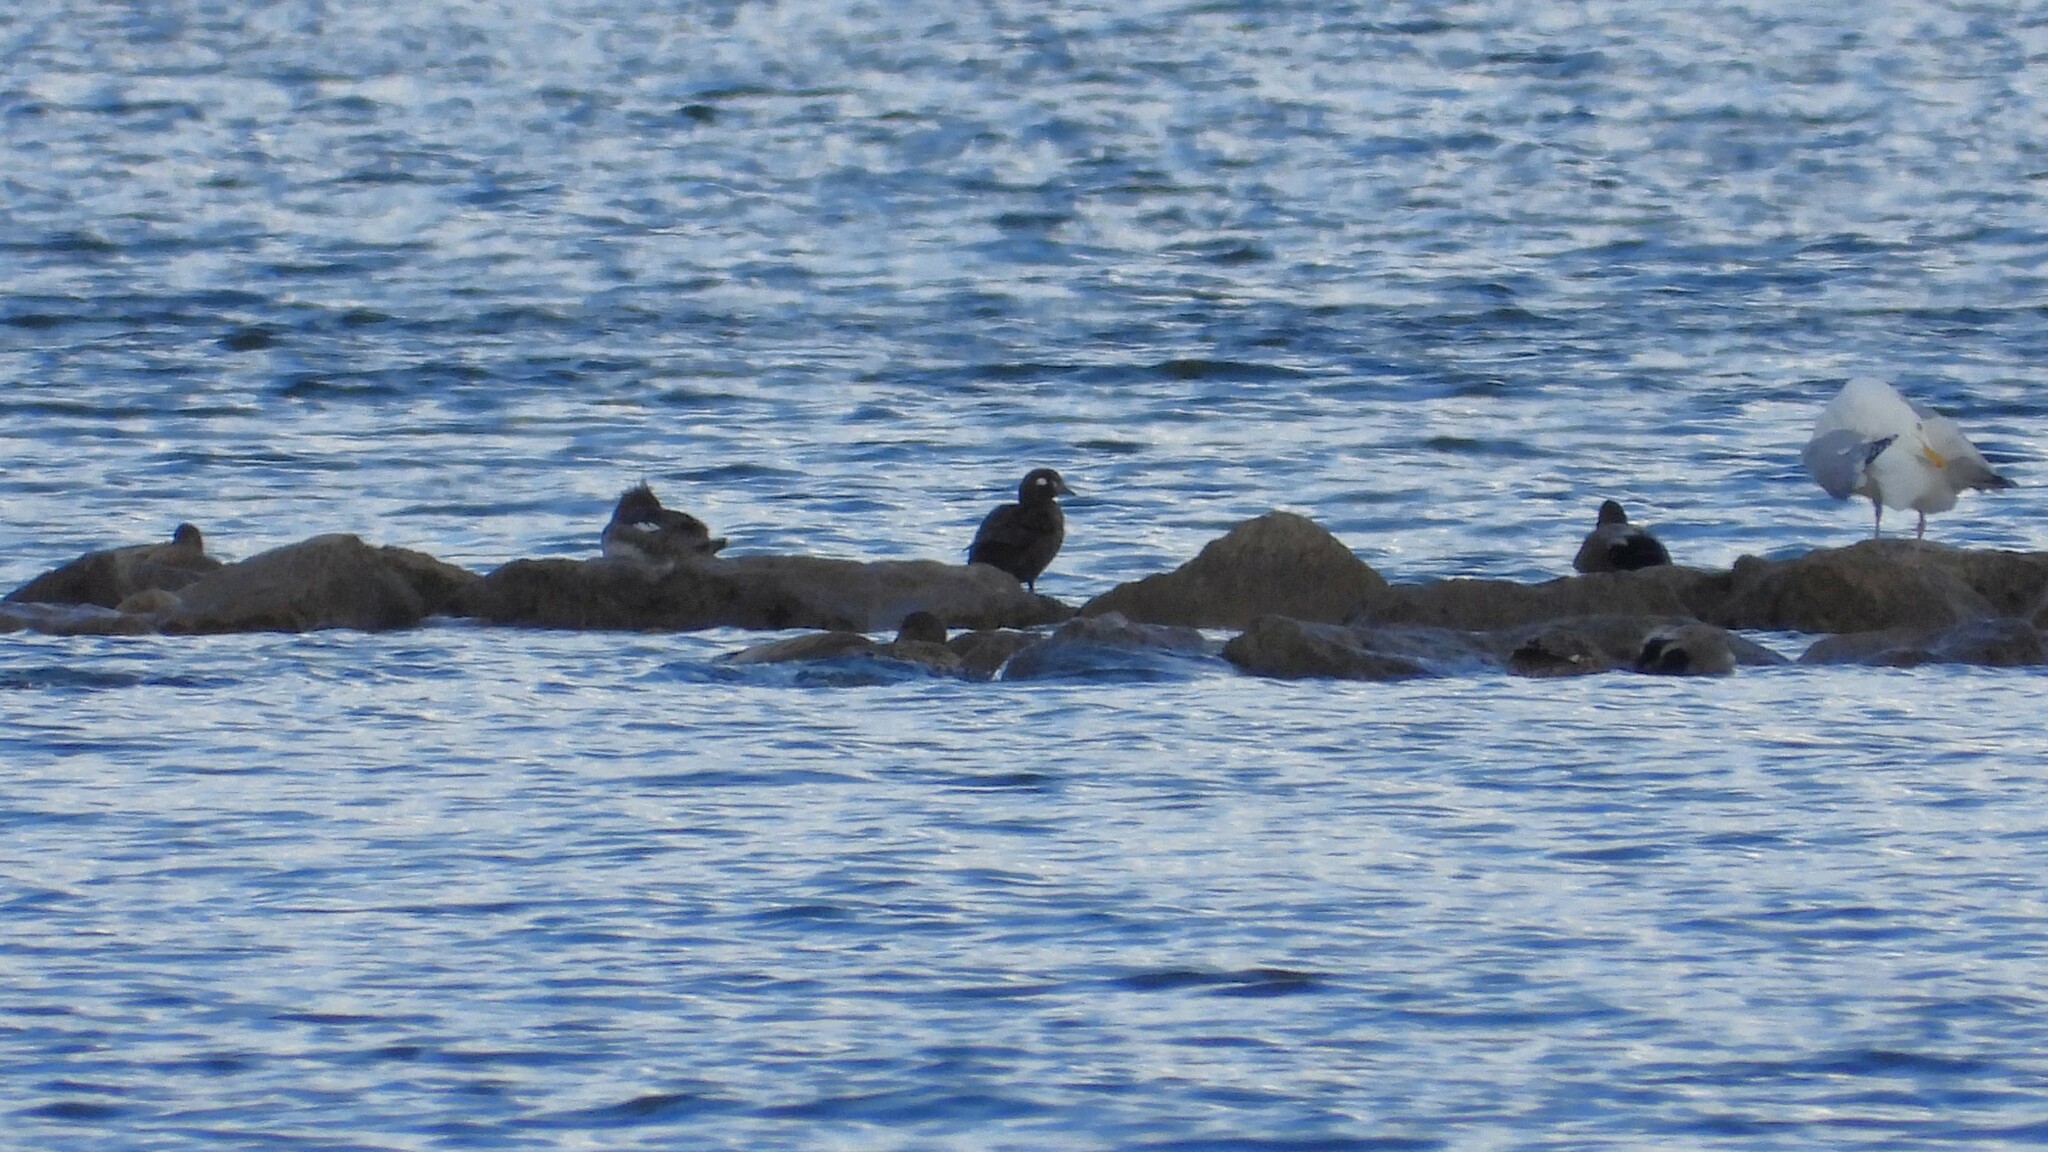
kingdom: Animalia
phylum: Chordata
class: Aves
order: Anseriformes
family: Anatidae
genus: Histrionicus
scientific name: Histrionicus histrionicus
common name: Harlequin duck
